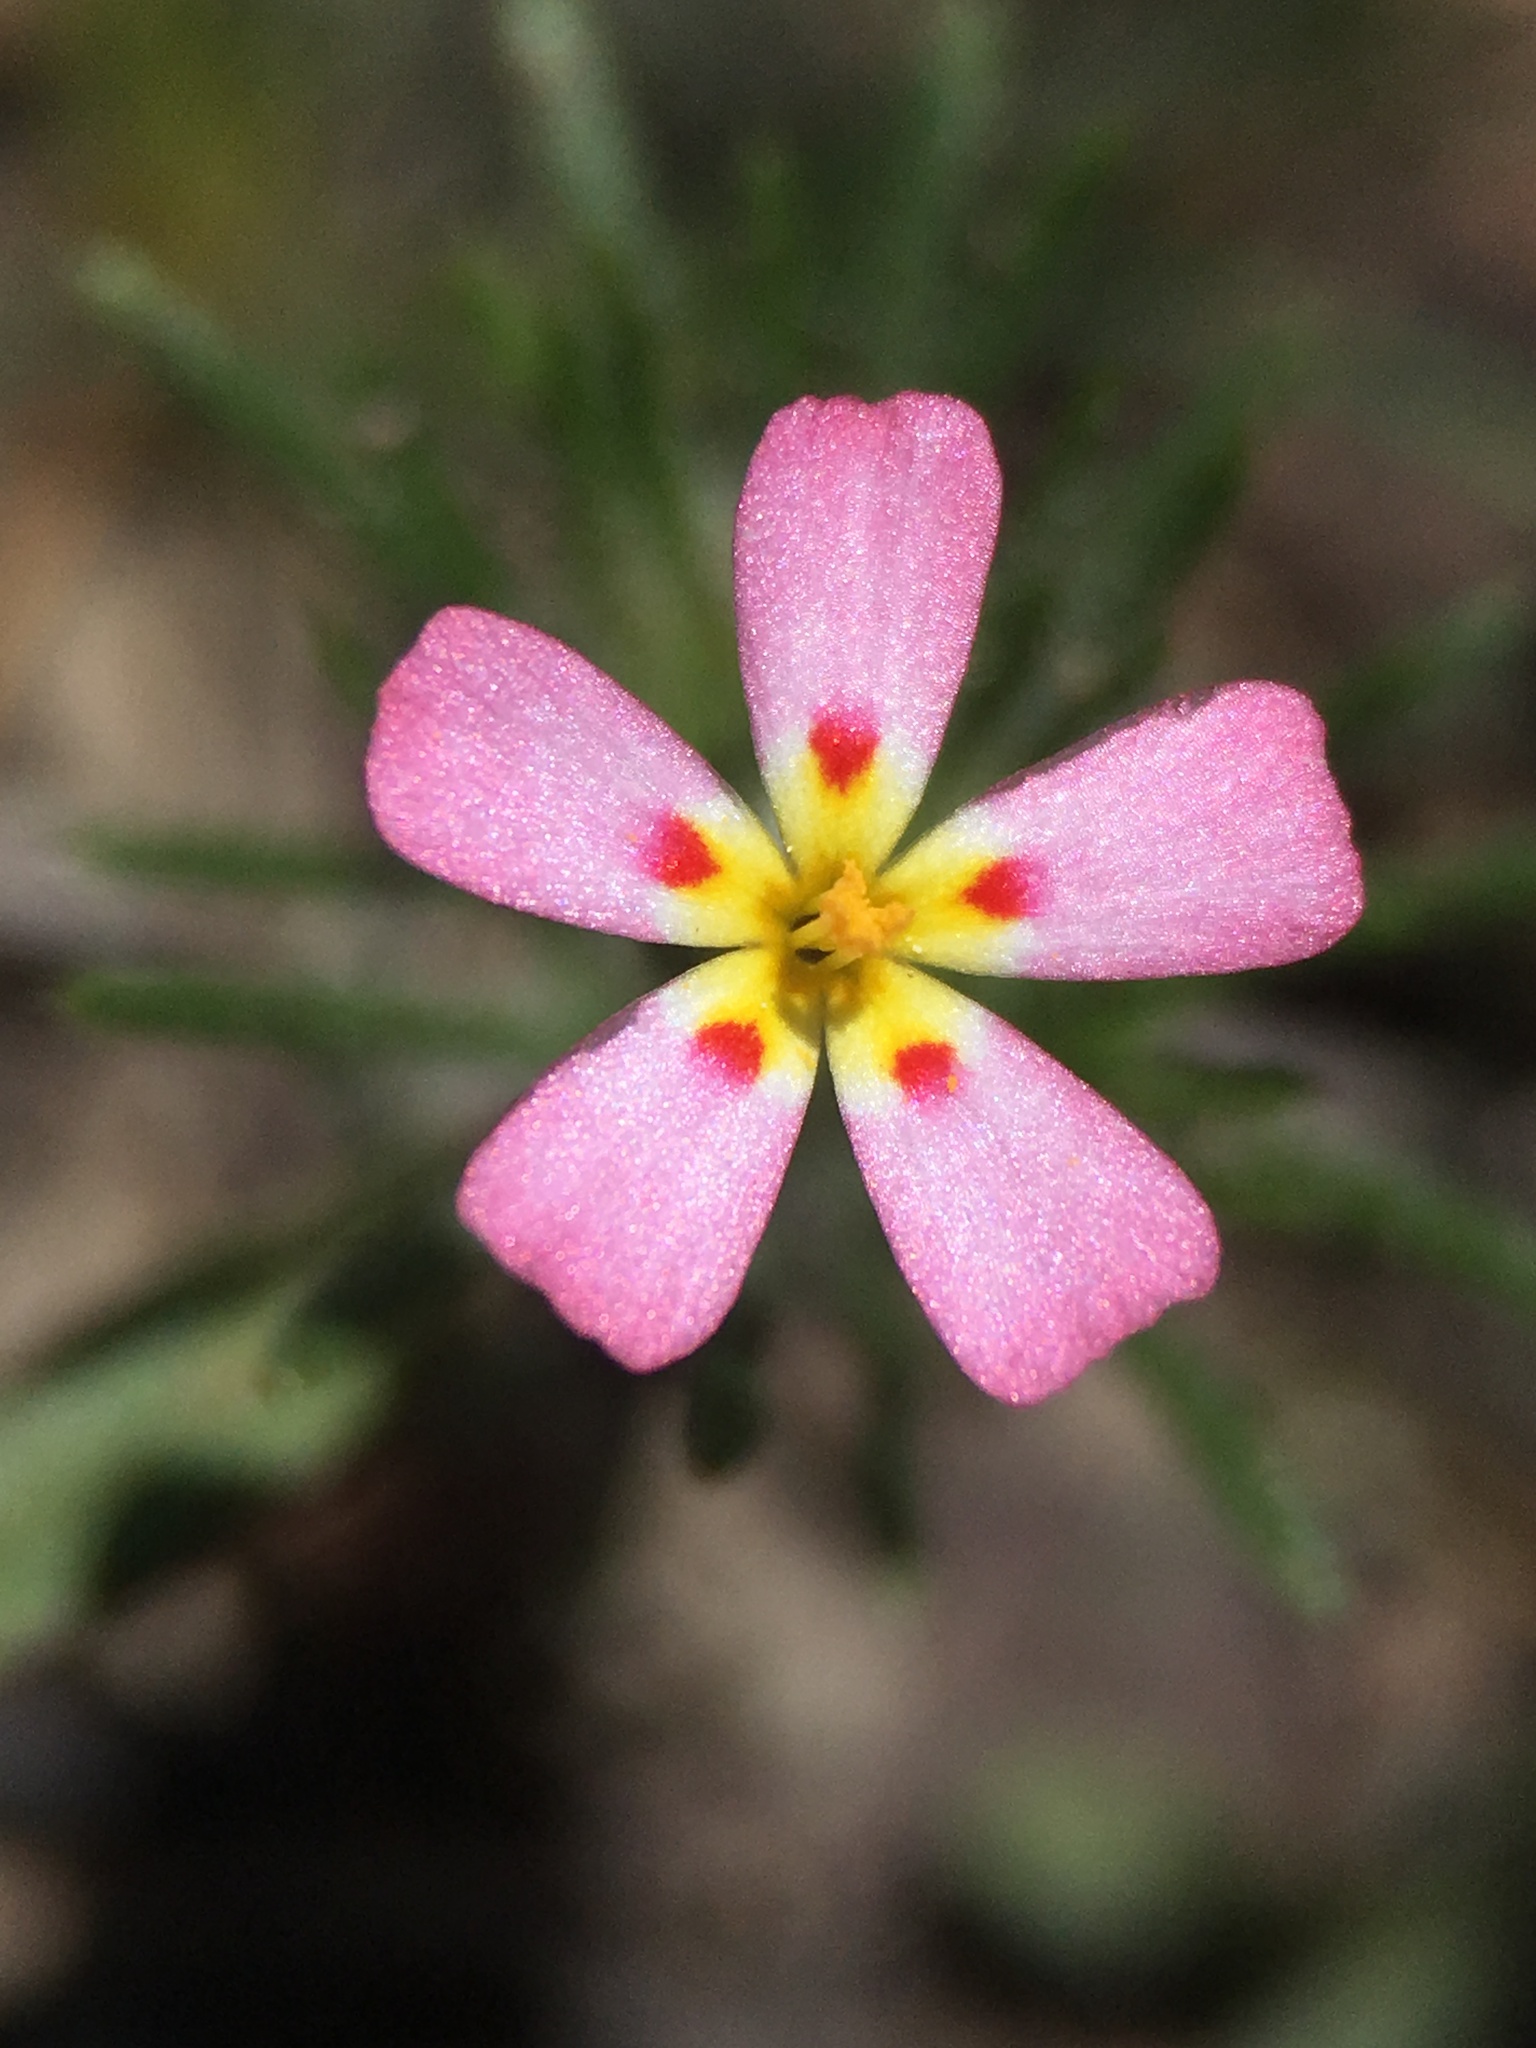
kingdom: Plantae
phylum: Tracheophyta
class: Magnoliopsida
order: Ericales
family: Polemoniaceae
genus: Leptosiphon
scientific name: Leptosiphon ciliatus
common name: Whiskerbrush
